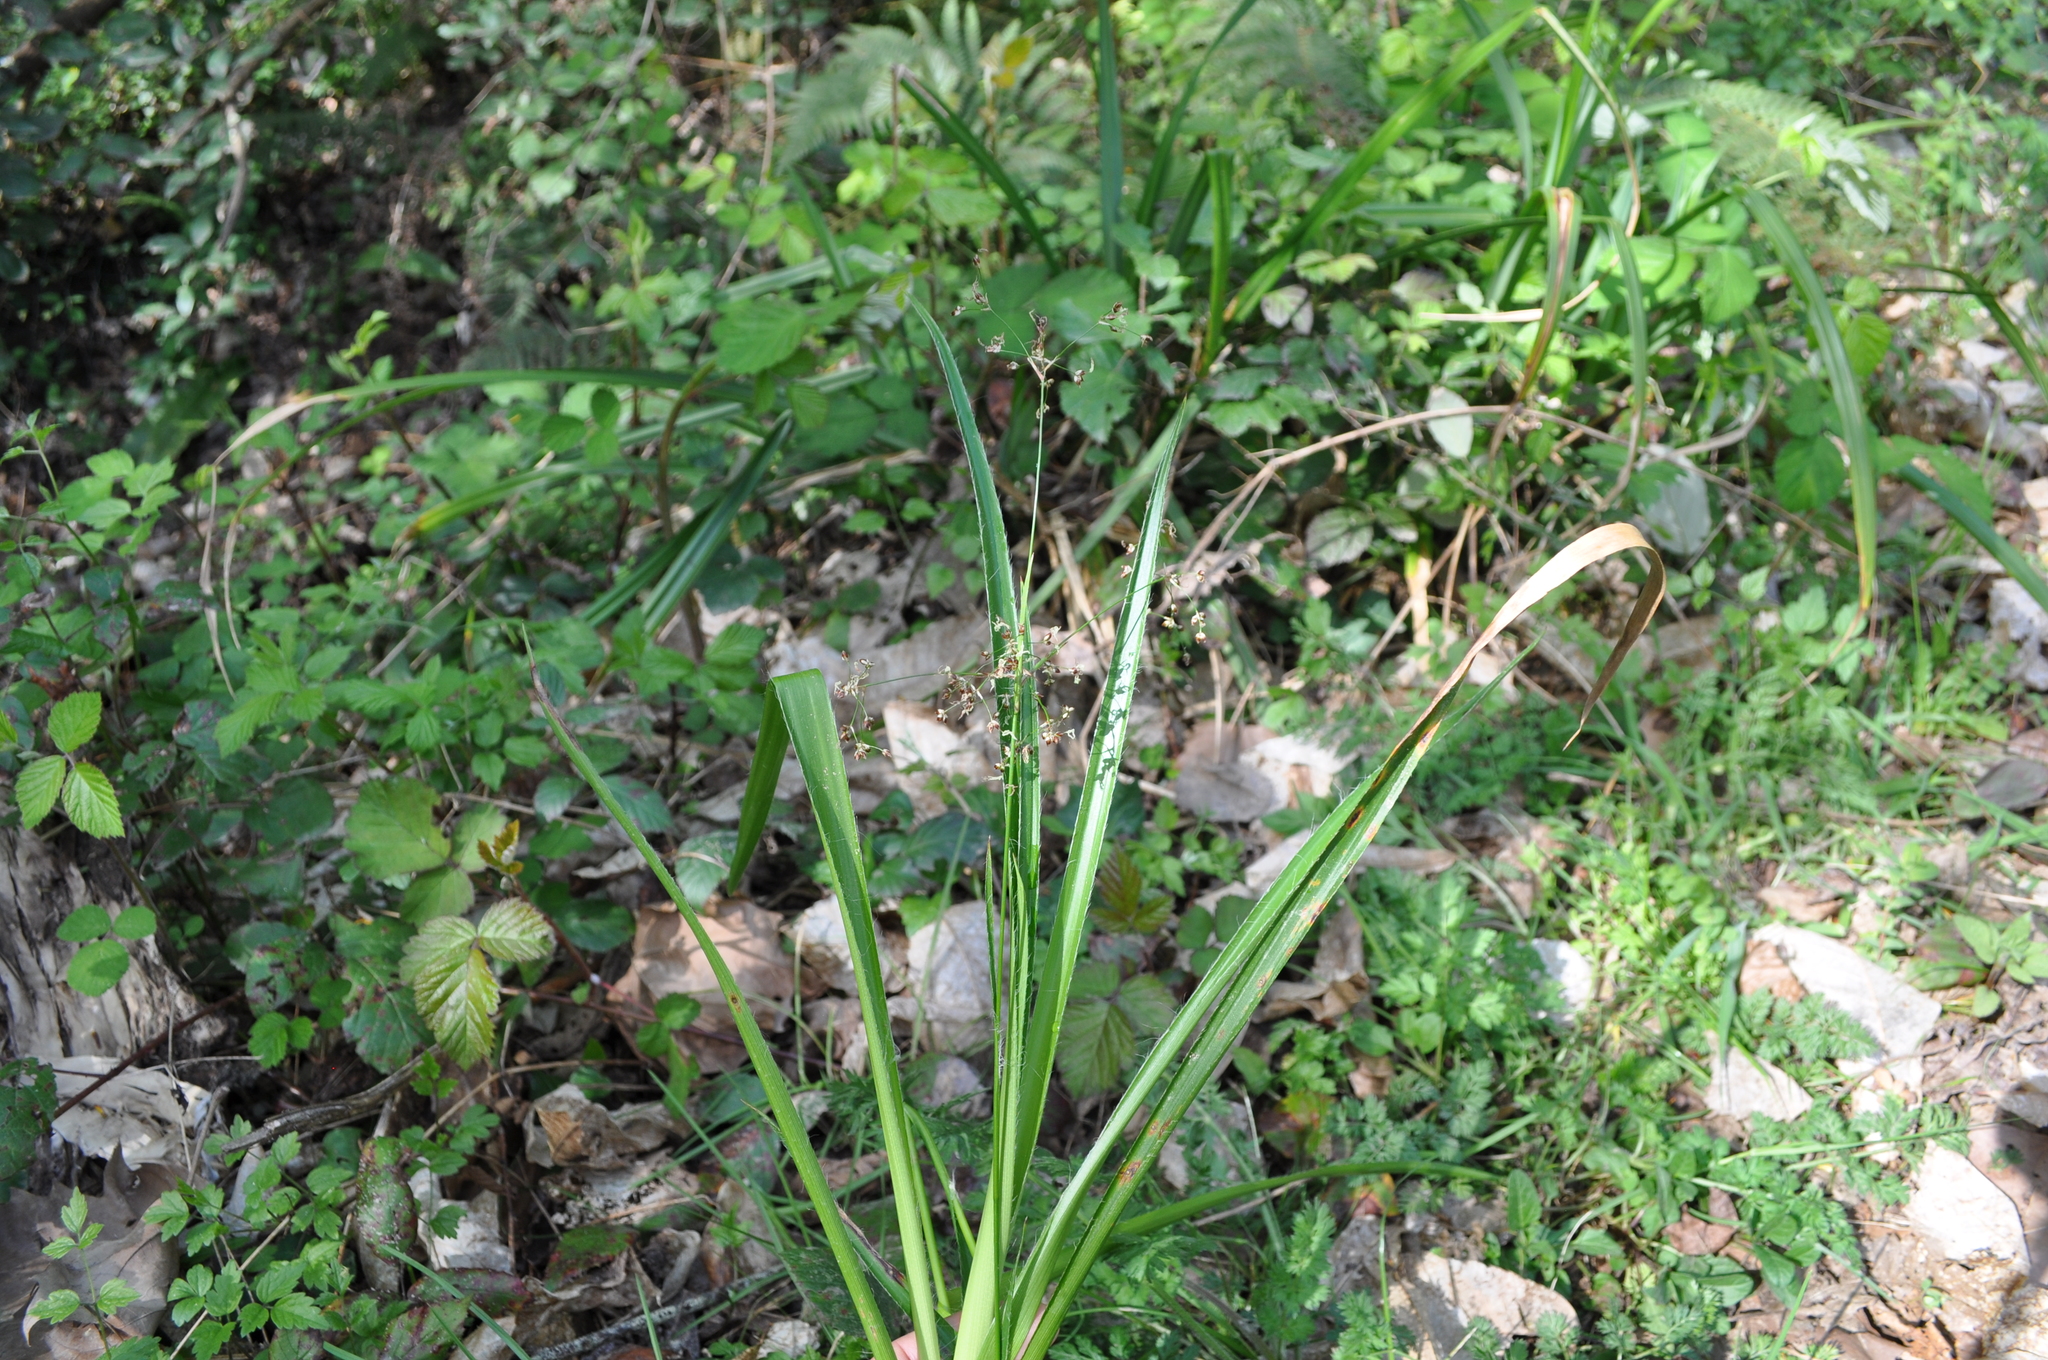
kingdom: Plantae
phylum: Tracheophyta
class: Liliopsida
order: Poales
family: Juncaceae
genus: Luzula
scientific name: Luzula sylvatica
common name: Great wood-rush
